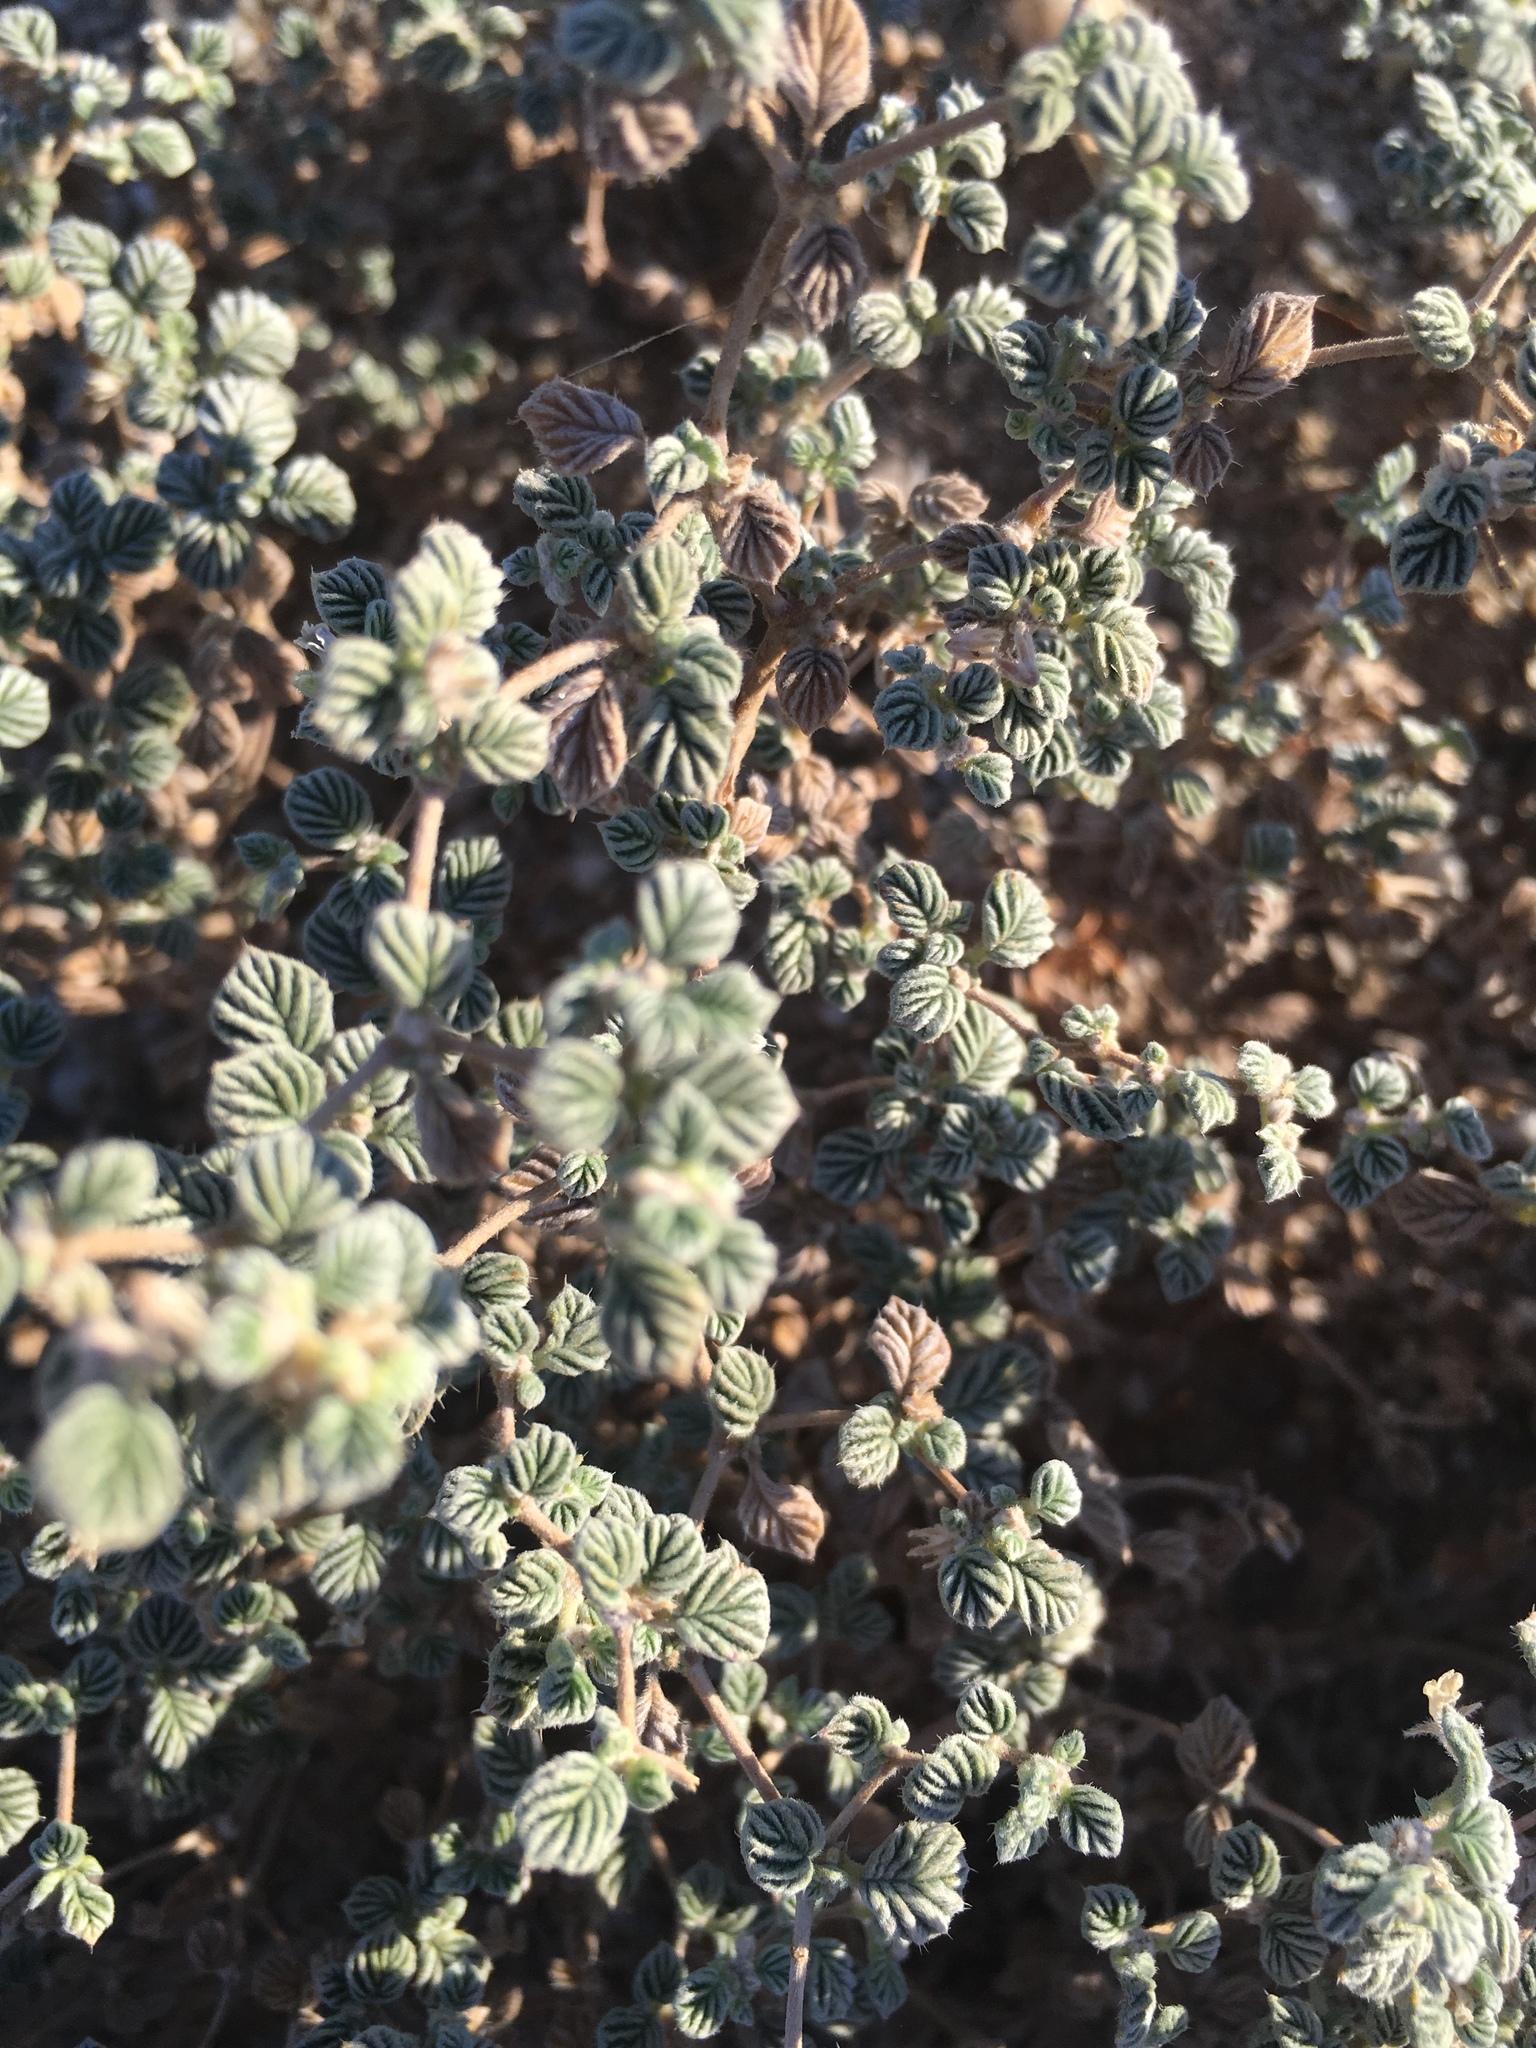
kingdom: Plantae
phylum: Tracheophyta
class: Magnoliopsida
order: Boraginales
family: Ehretiaceae
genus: Tiquilia
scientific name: Tiquilia plicata
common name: Fan-leaf tiquilia
